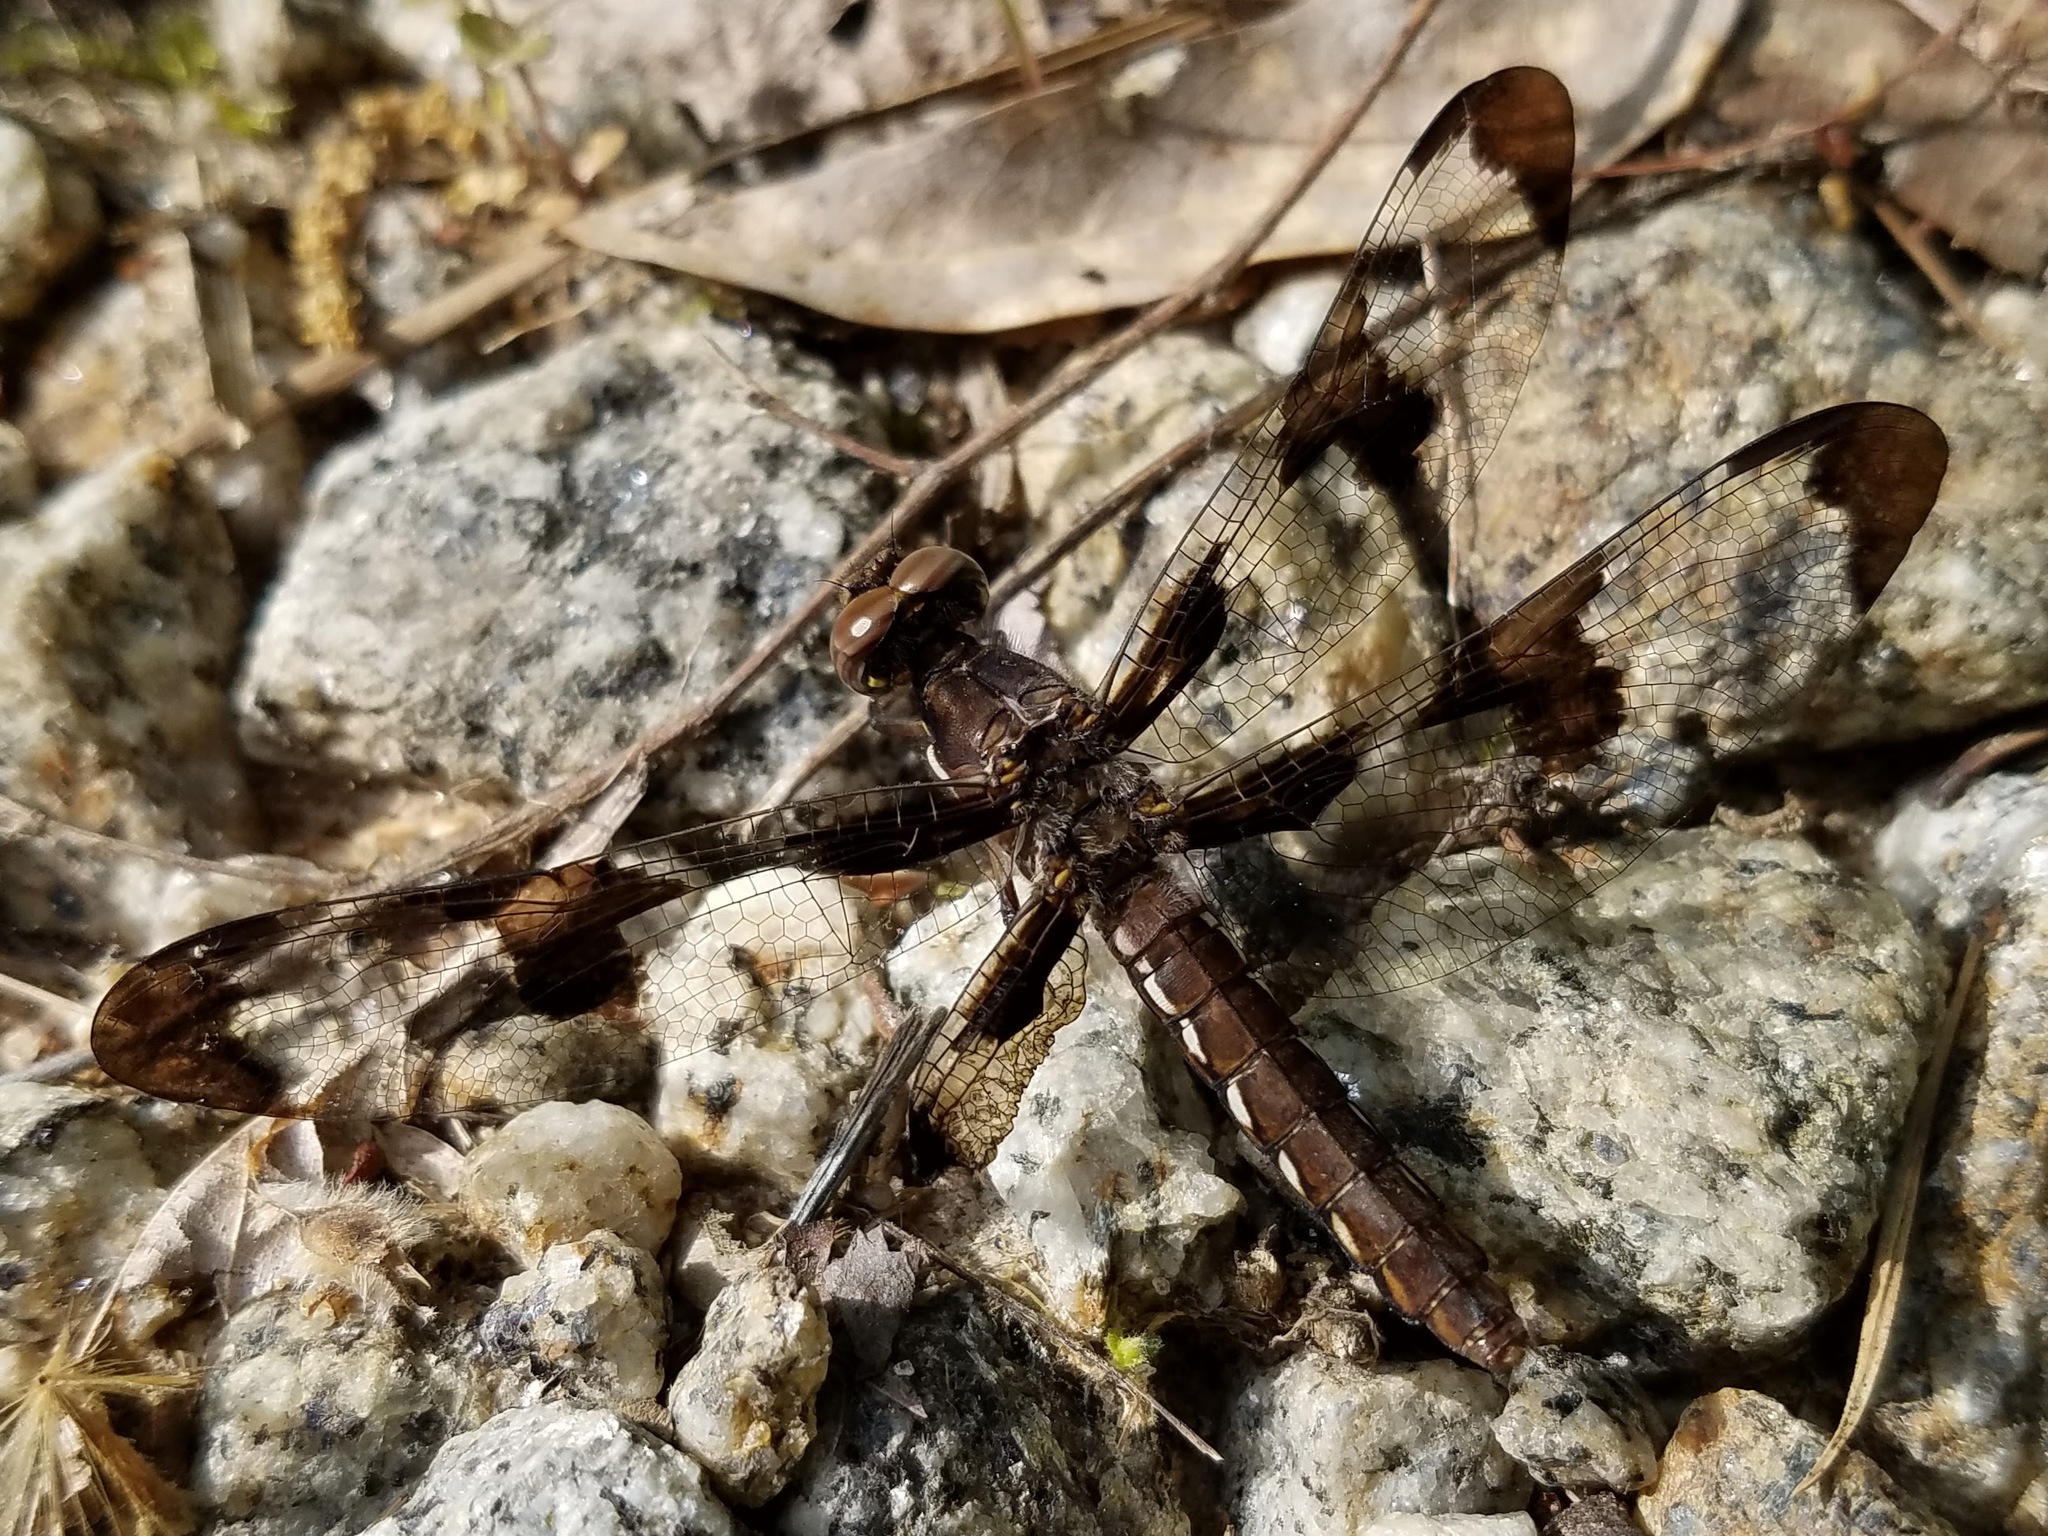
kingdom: Animalia
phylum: Arthropoda
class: Insecta
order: Odonata
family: Libellulidae
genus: Plathemis
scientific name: Plathemis lydia
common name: Common whitetail
